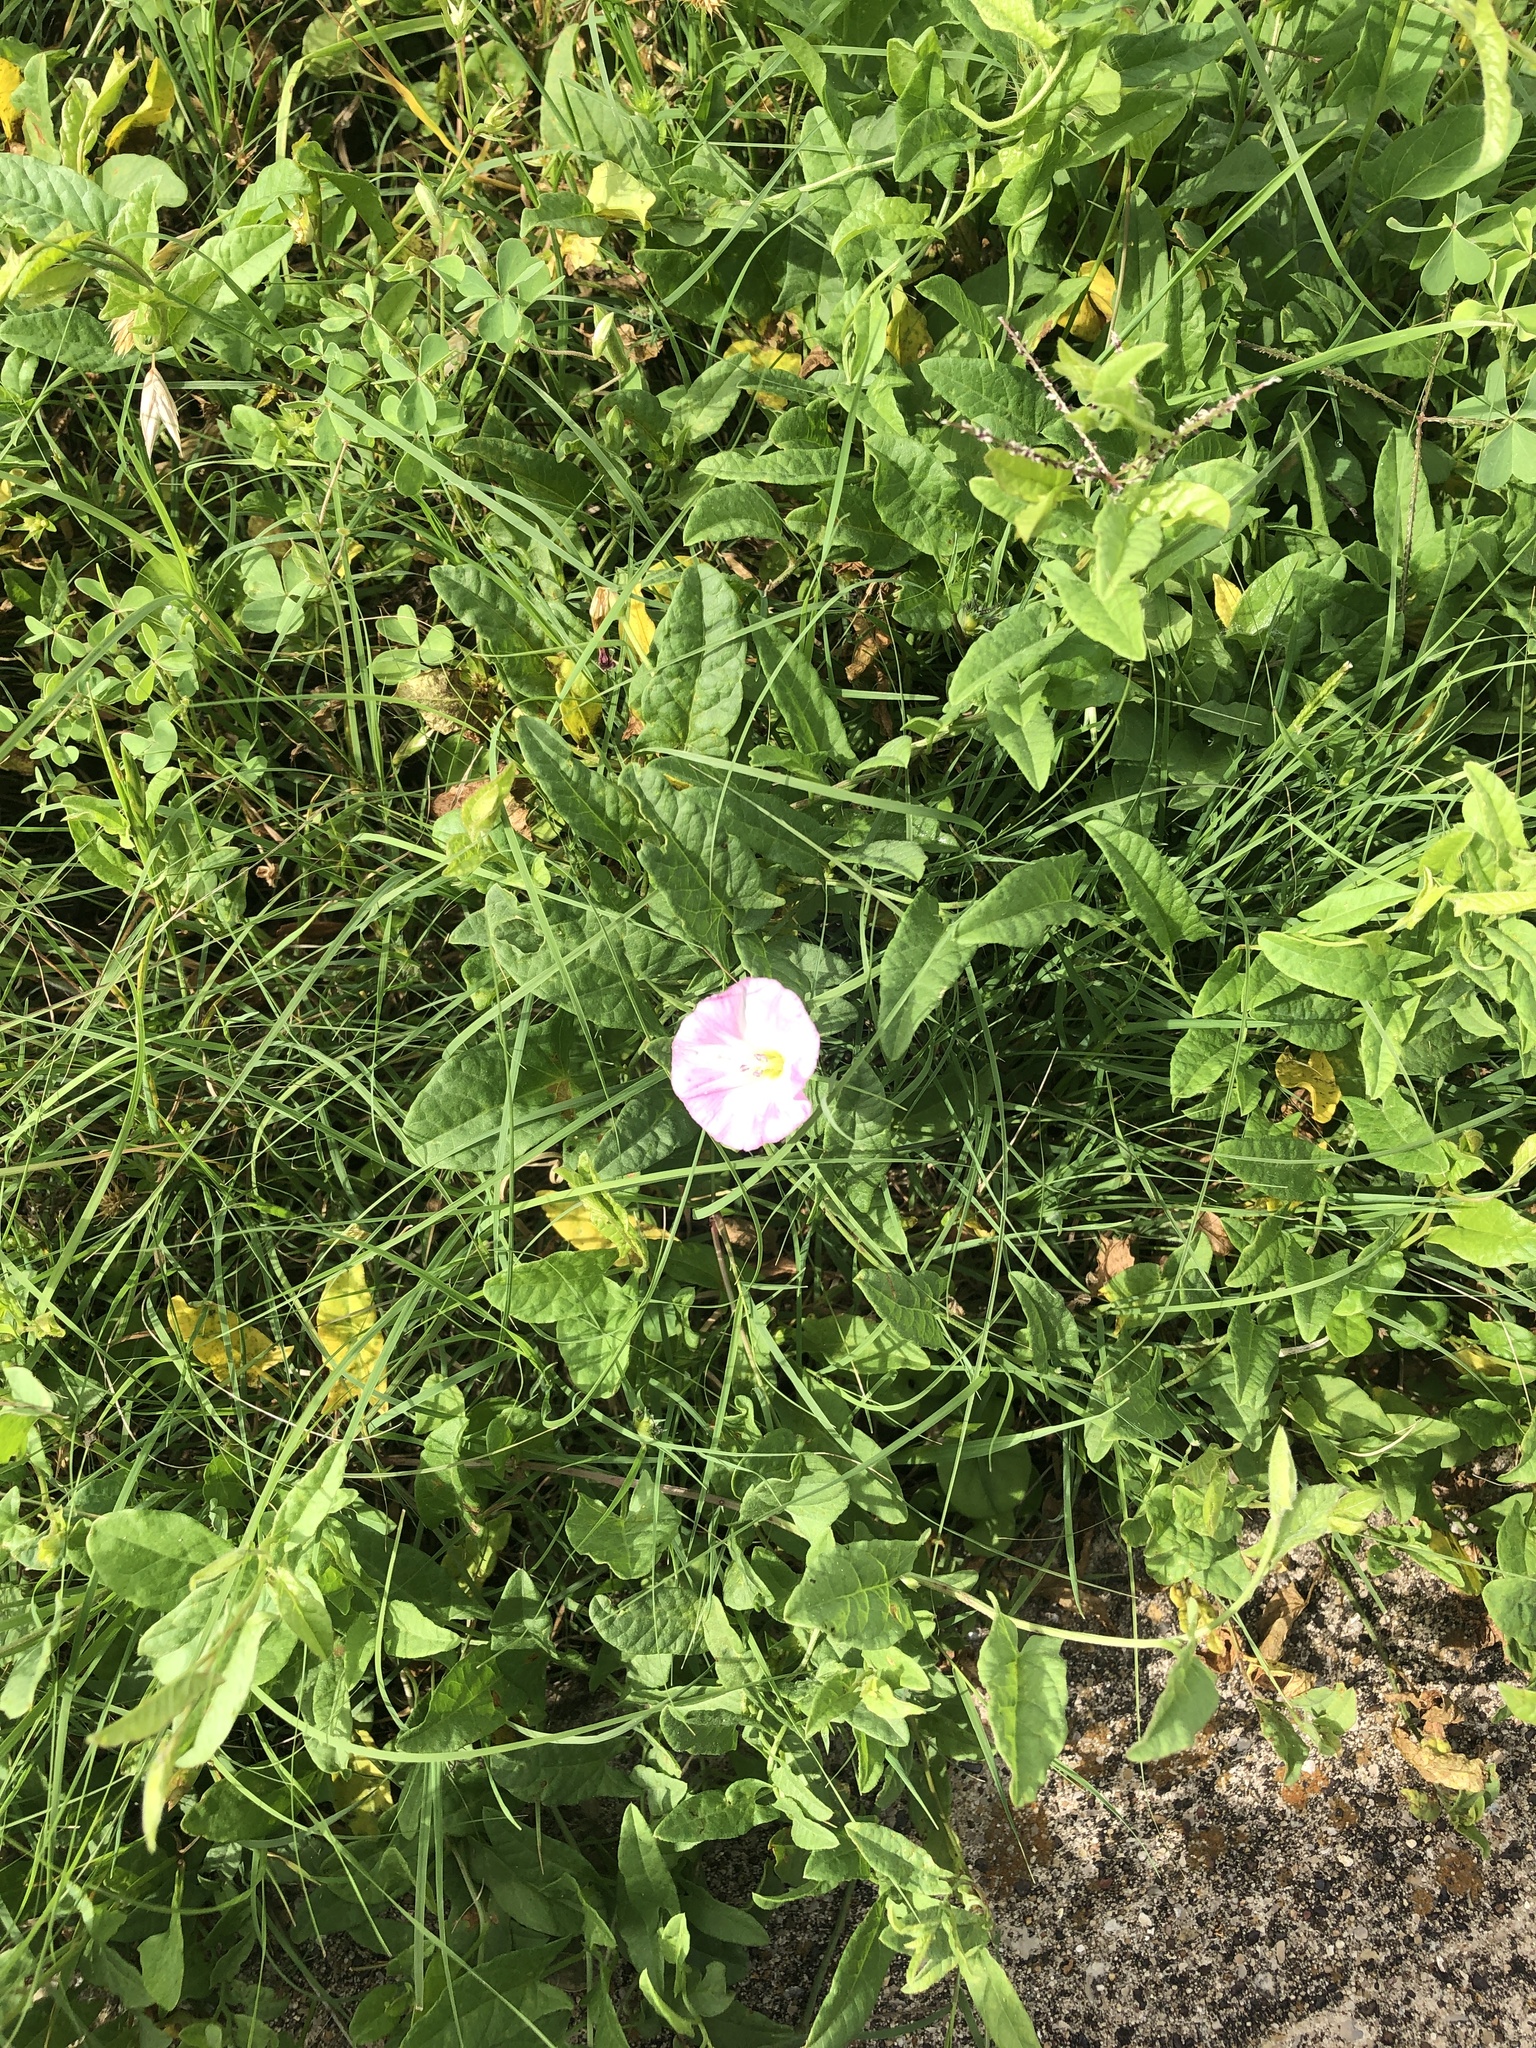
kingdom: Plantae
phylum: Tracheophyta
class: Magnoliopsida
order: Solanales
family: Convolvulaceae
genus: Convolvulus
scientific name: Convolvulus arvensis
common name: Field bindweed
